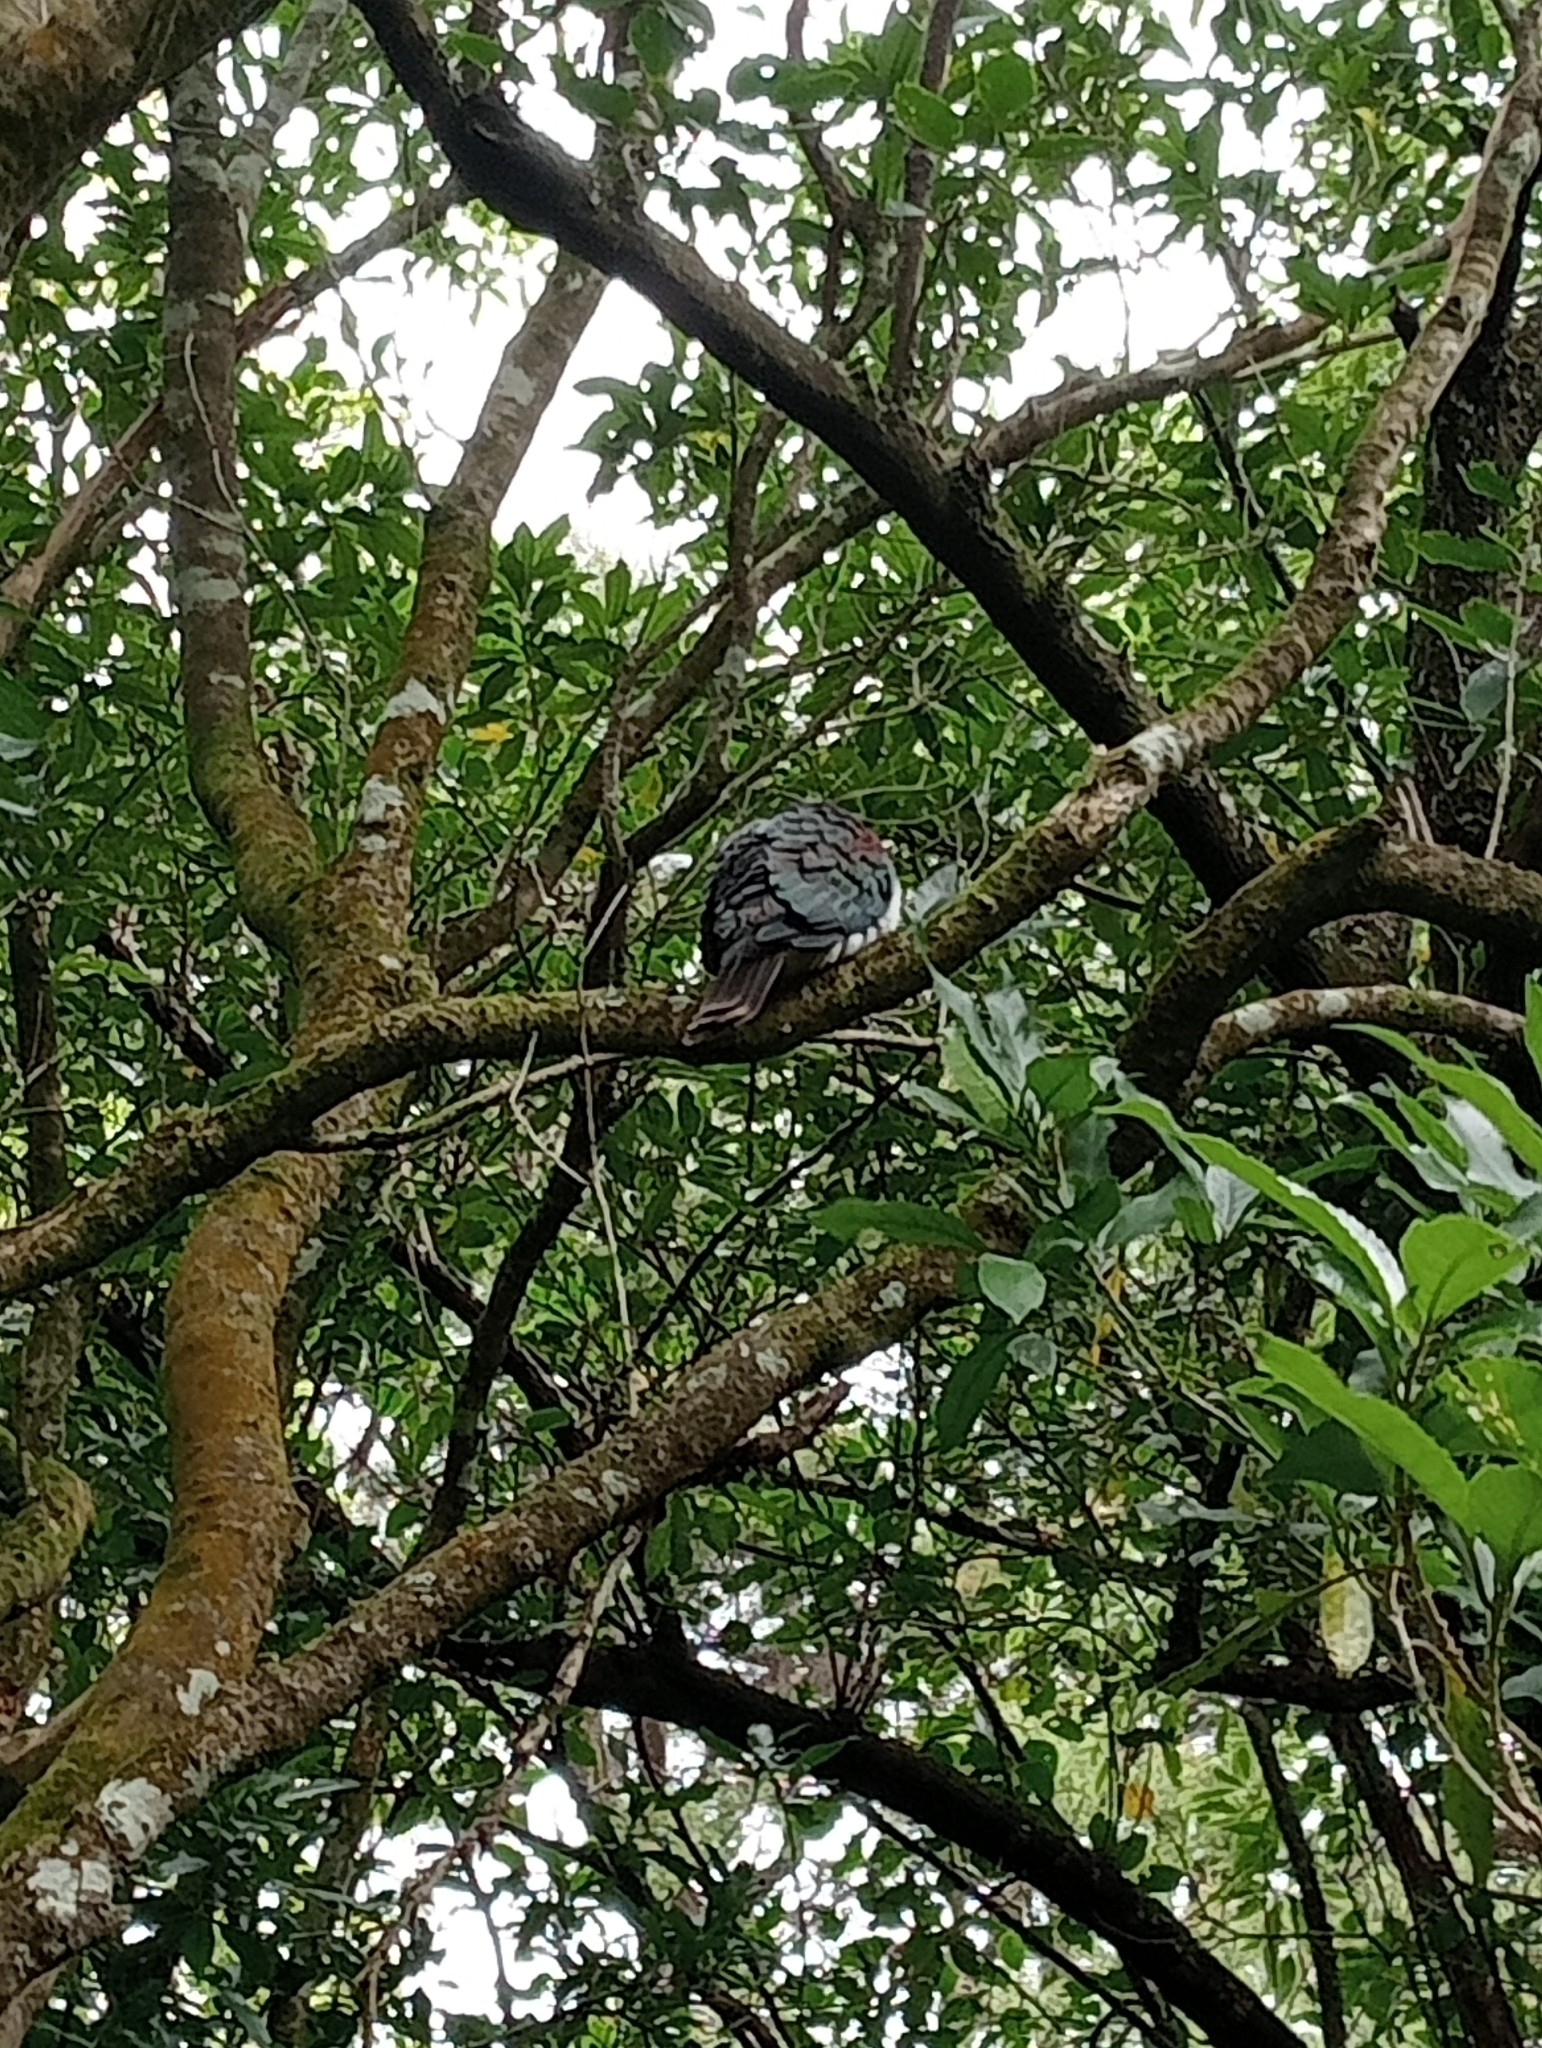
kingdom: Animalia
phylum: Chordata
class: Aves
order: Columbiformes
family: Columbidae
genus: Hemiphaga
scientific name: Hemiphaga novaeseelandiae
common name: New zealand pigeon
